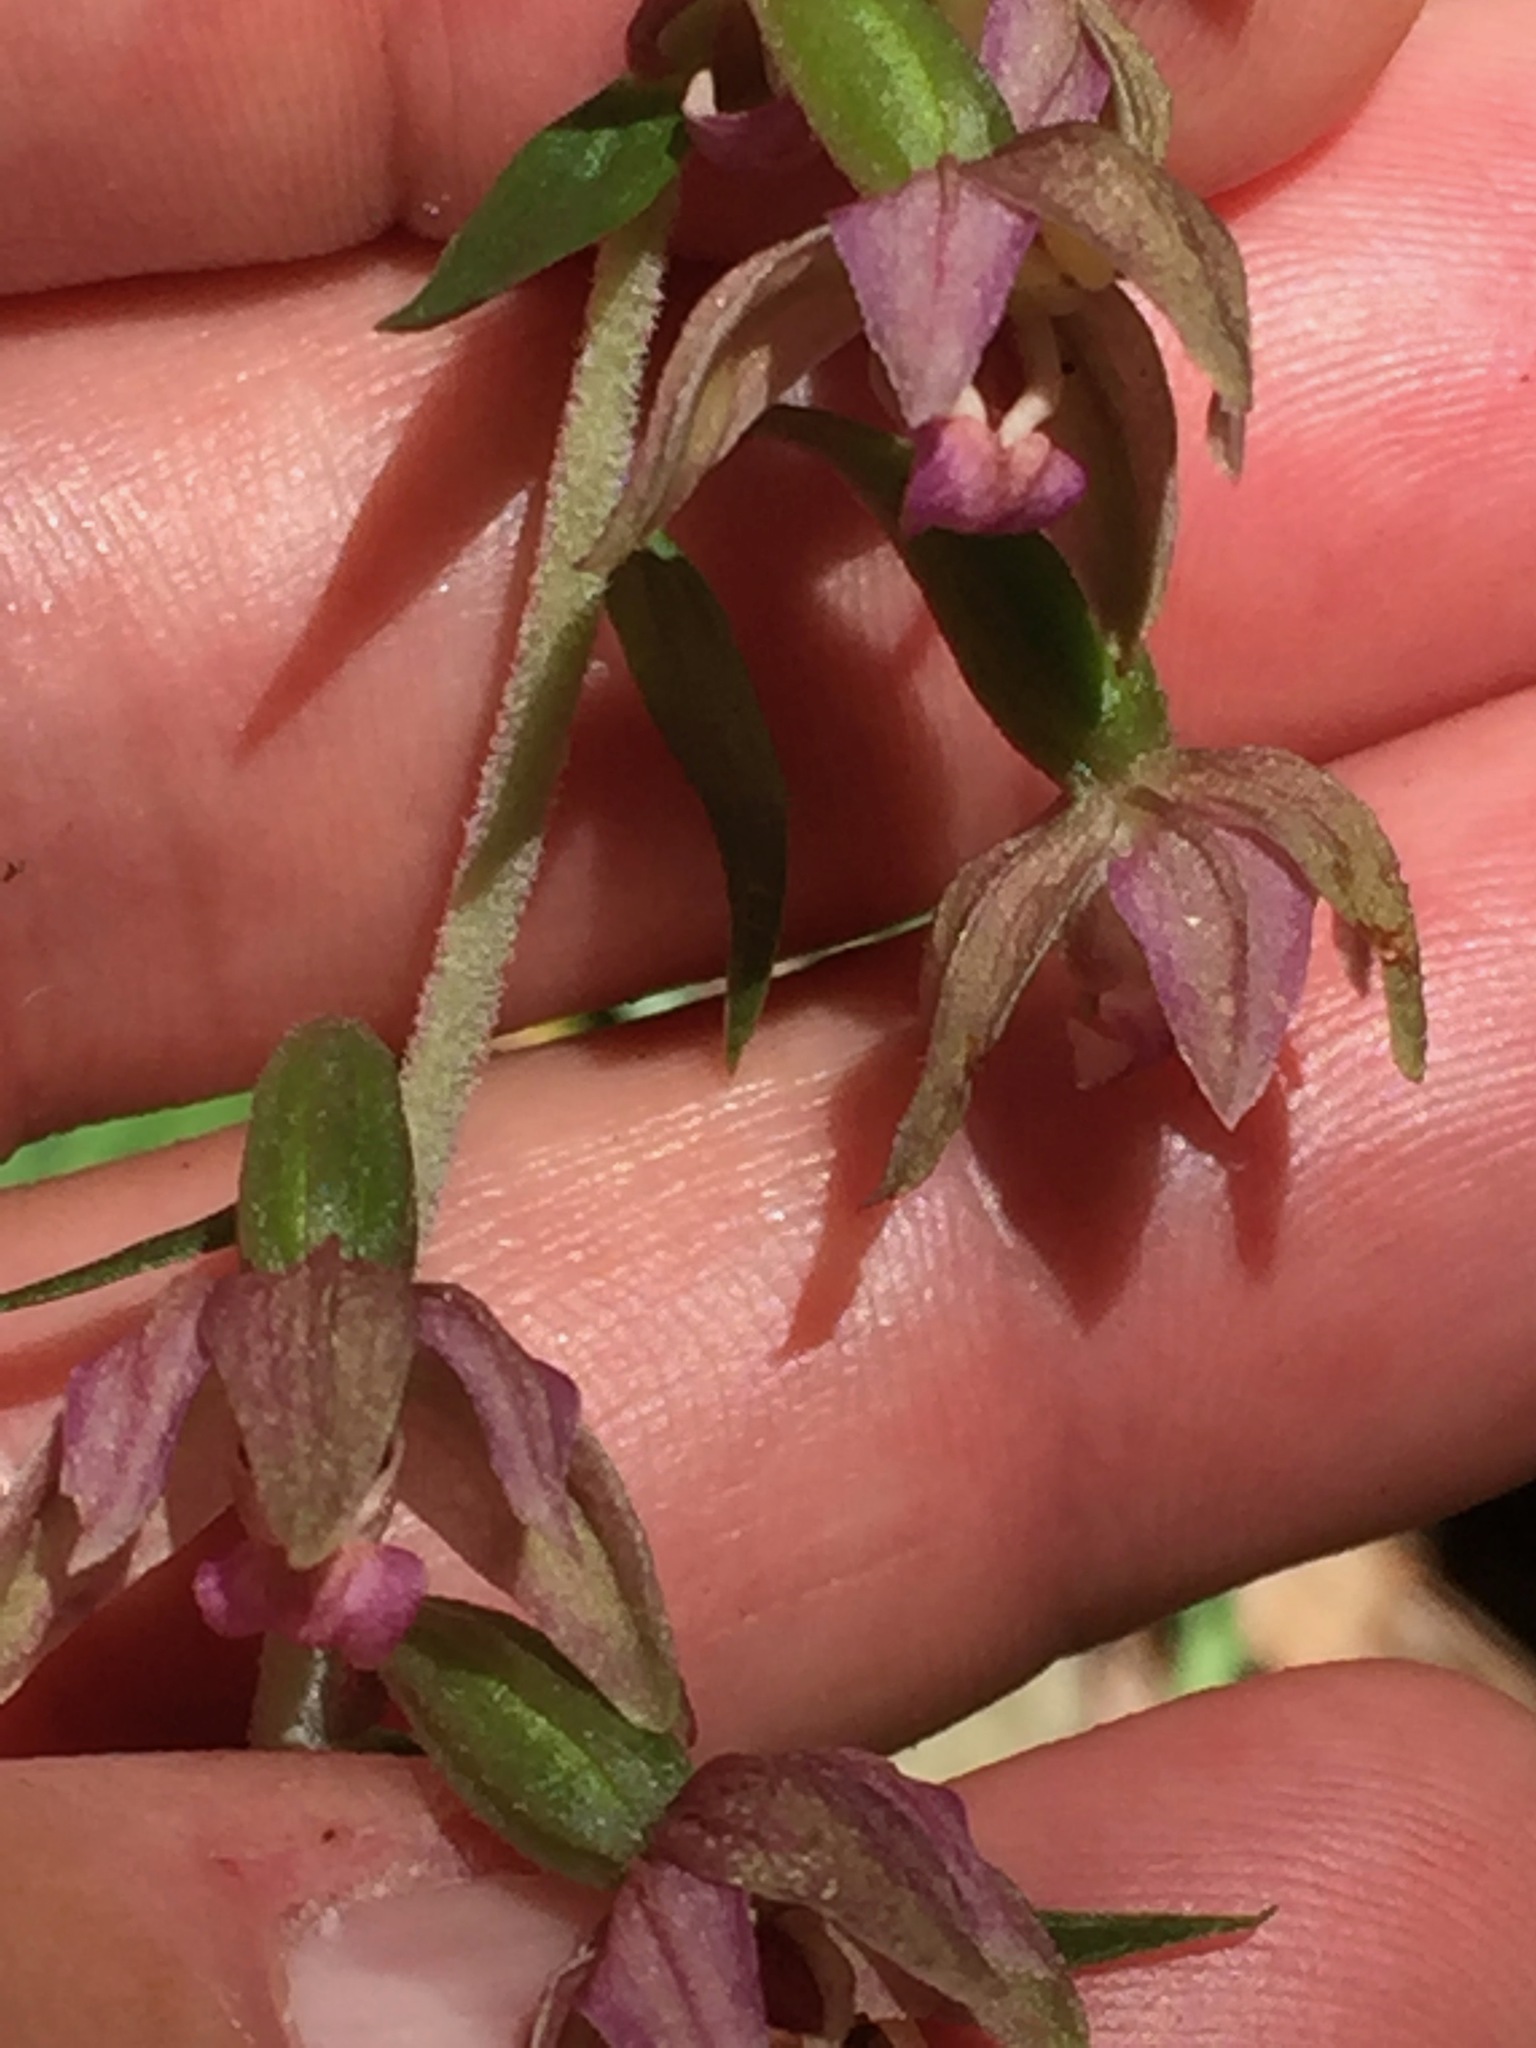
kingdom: Plantae
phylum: Tracheophyta
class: Liliopsida
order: Asparagales
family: Orchidaceae
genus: Epipactis
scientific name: Epipactis helleborine
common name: Broad-leaved helleborine
